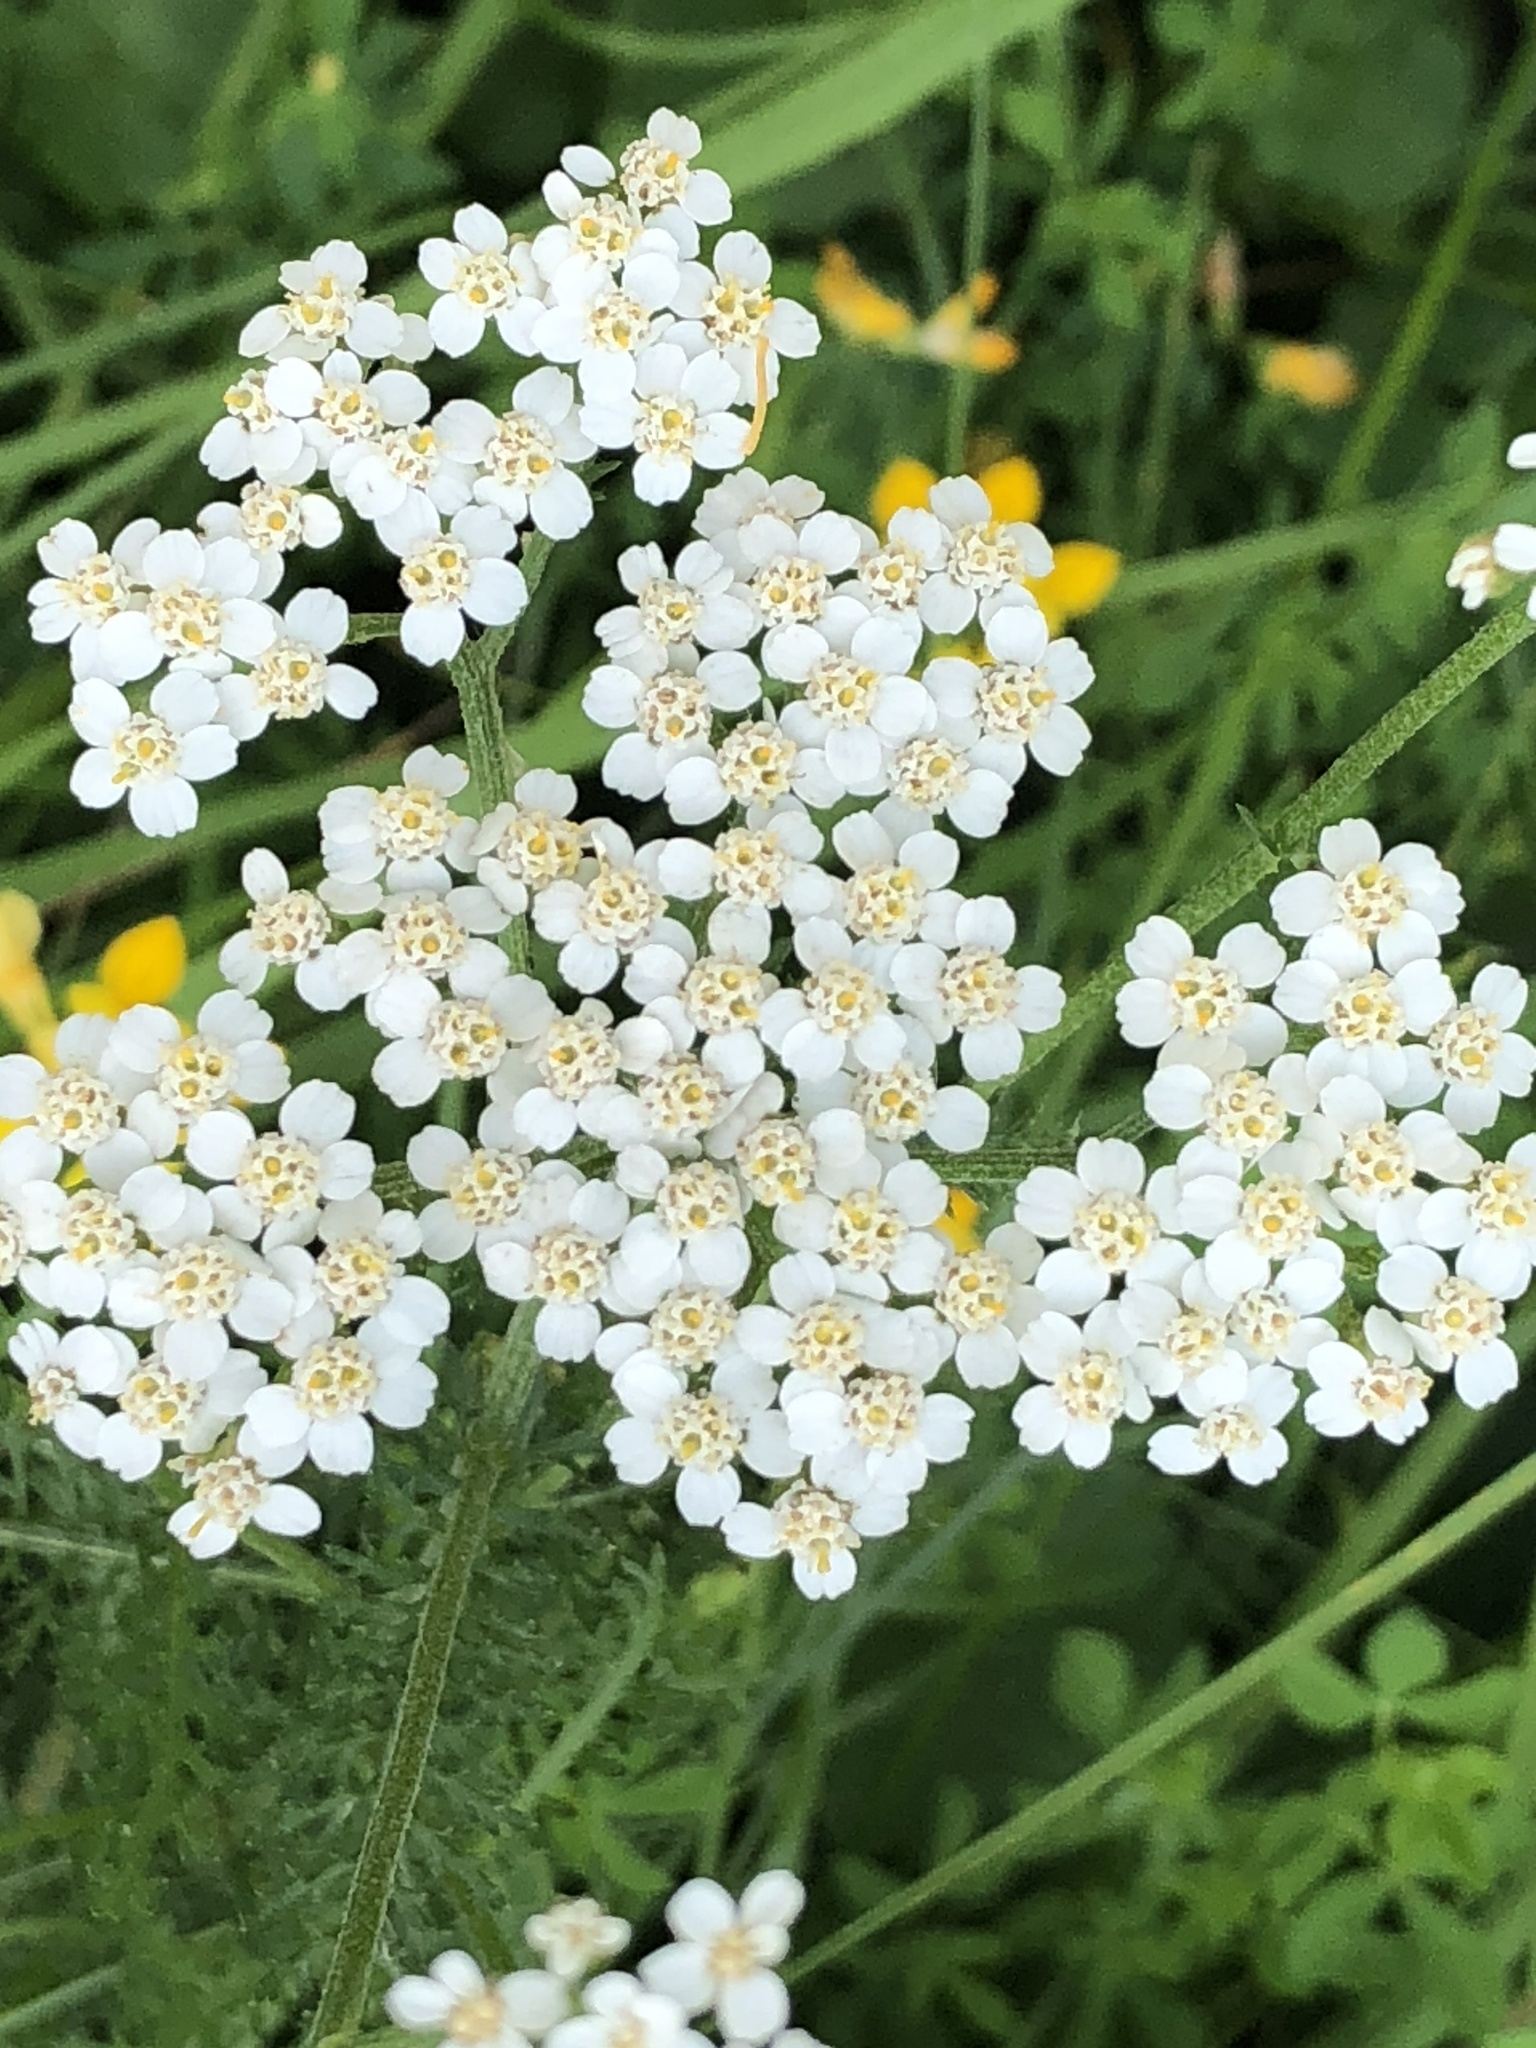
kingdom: Plantae
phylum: Tracheophyta
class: Magnoliopsida
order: Asterales
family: Asteraceae
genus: Achillea
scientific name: Achillea millefolium
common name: Yarrow
